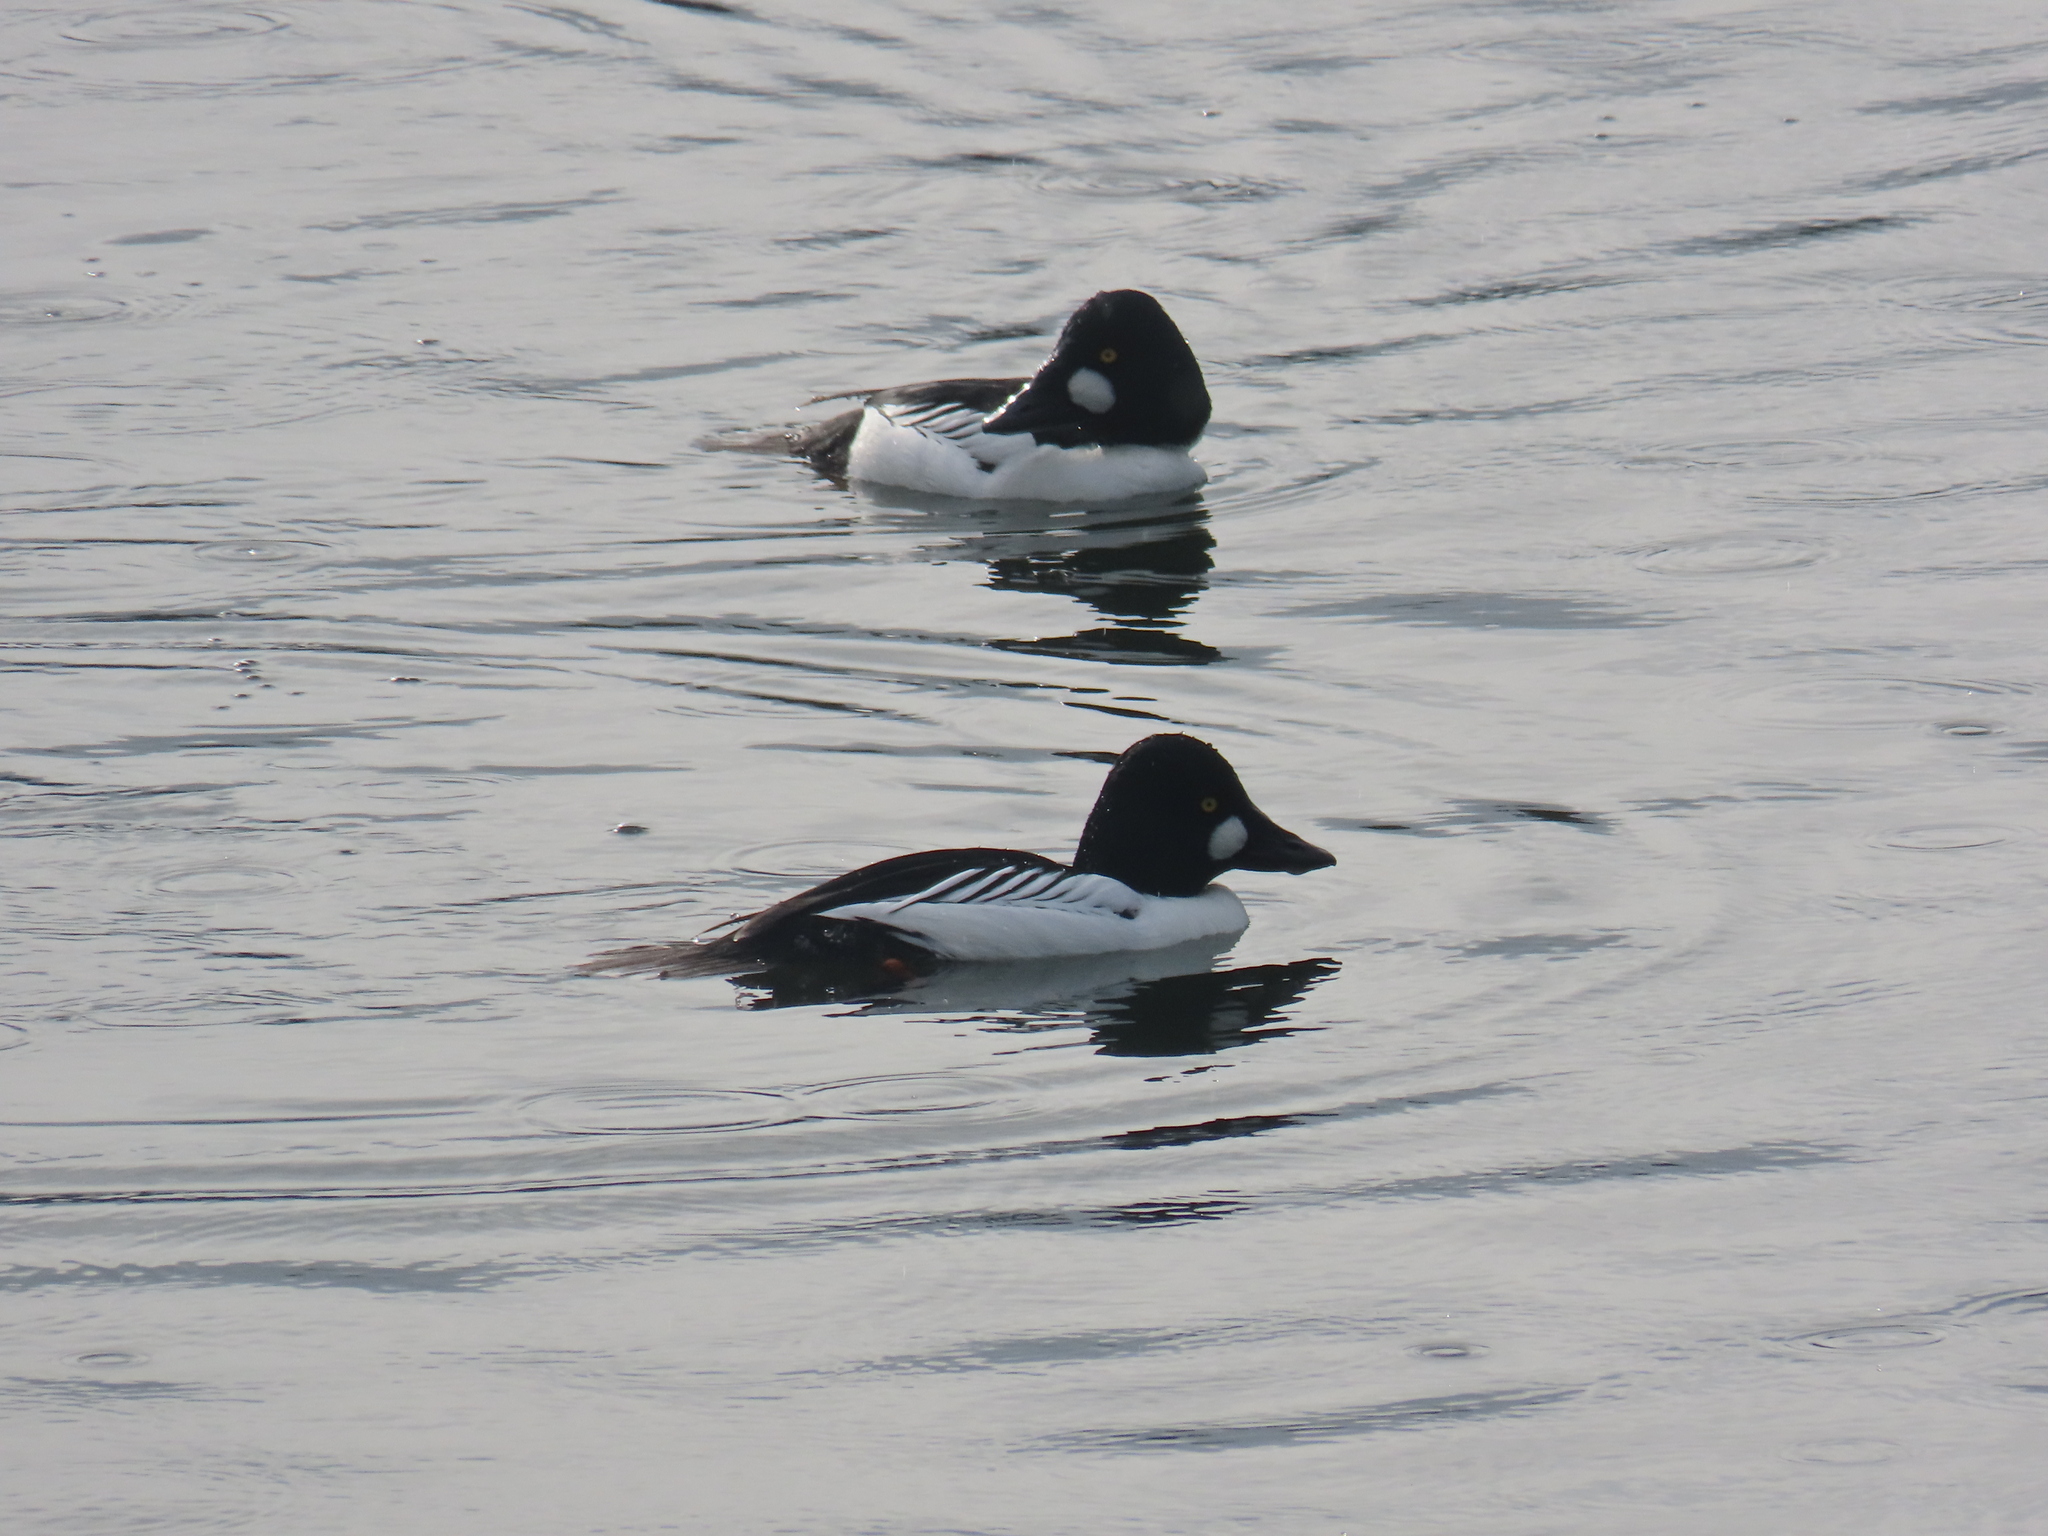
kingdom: Animalia
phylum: Chordata
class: Aves
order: Anseriformes
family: Anatidae
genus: Bucephala
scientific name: Bucephala clangula
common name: Common goldeneye
